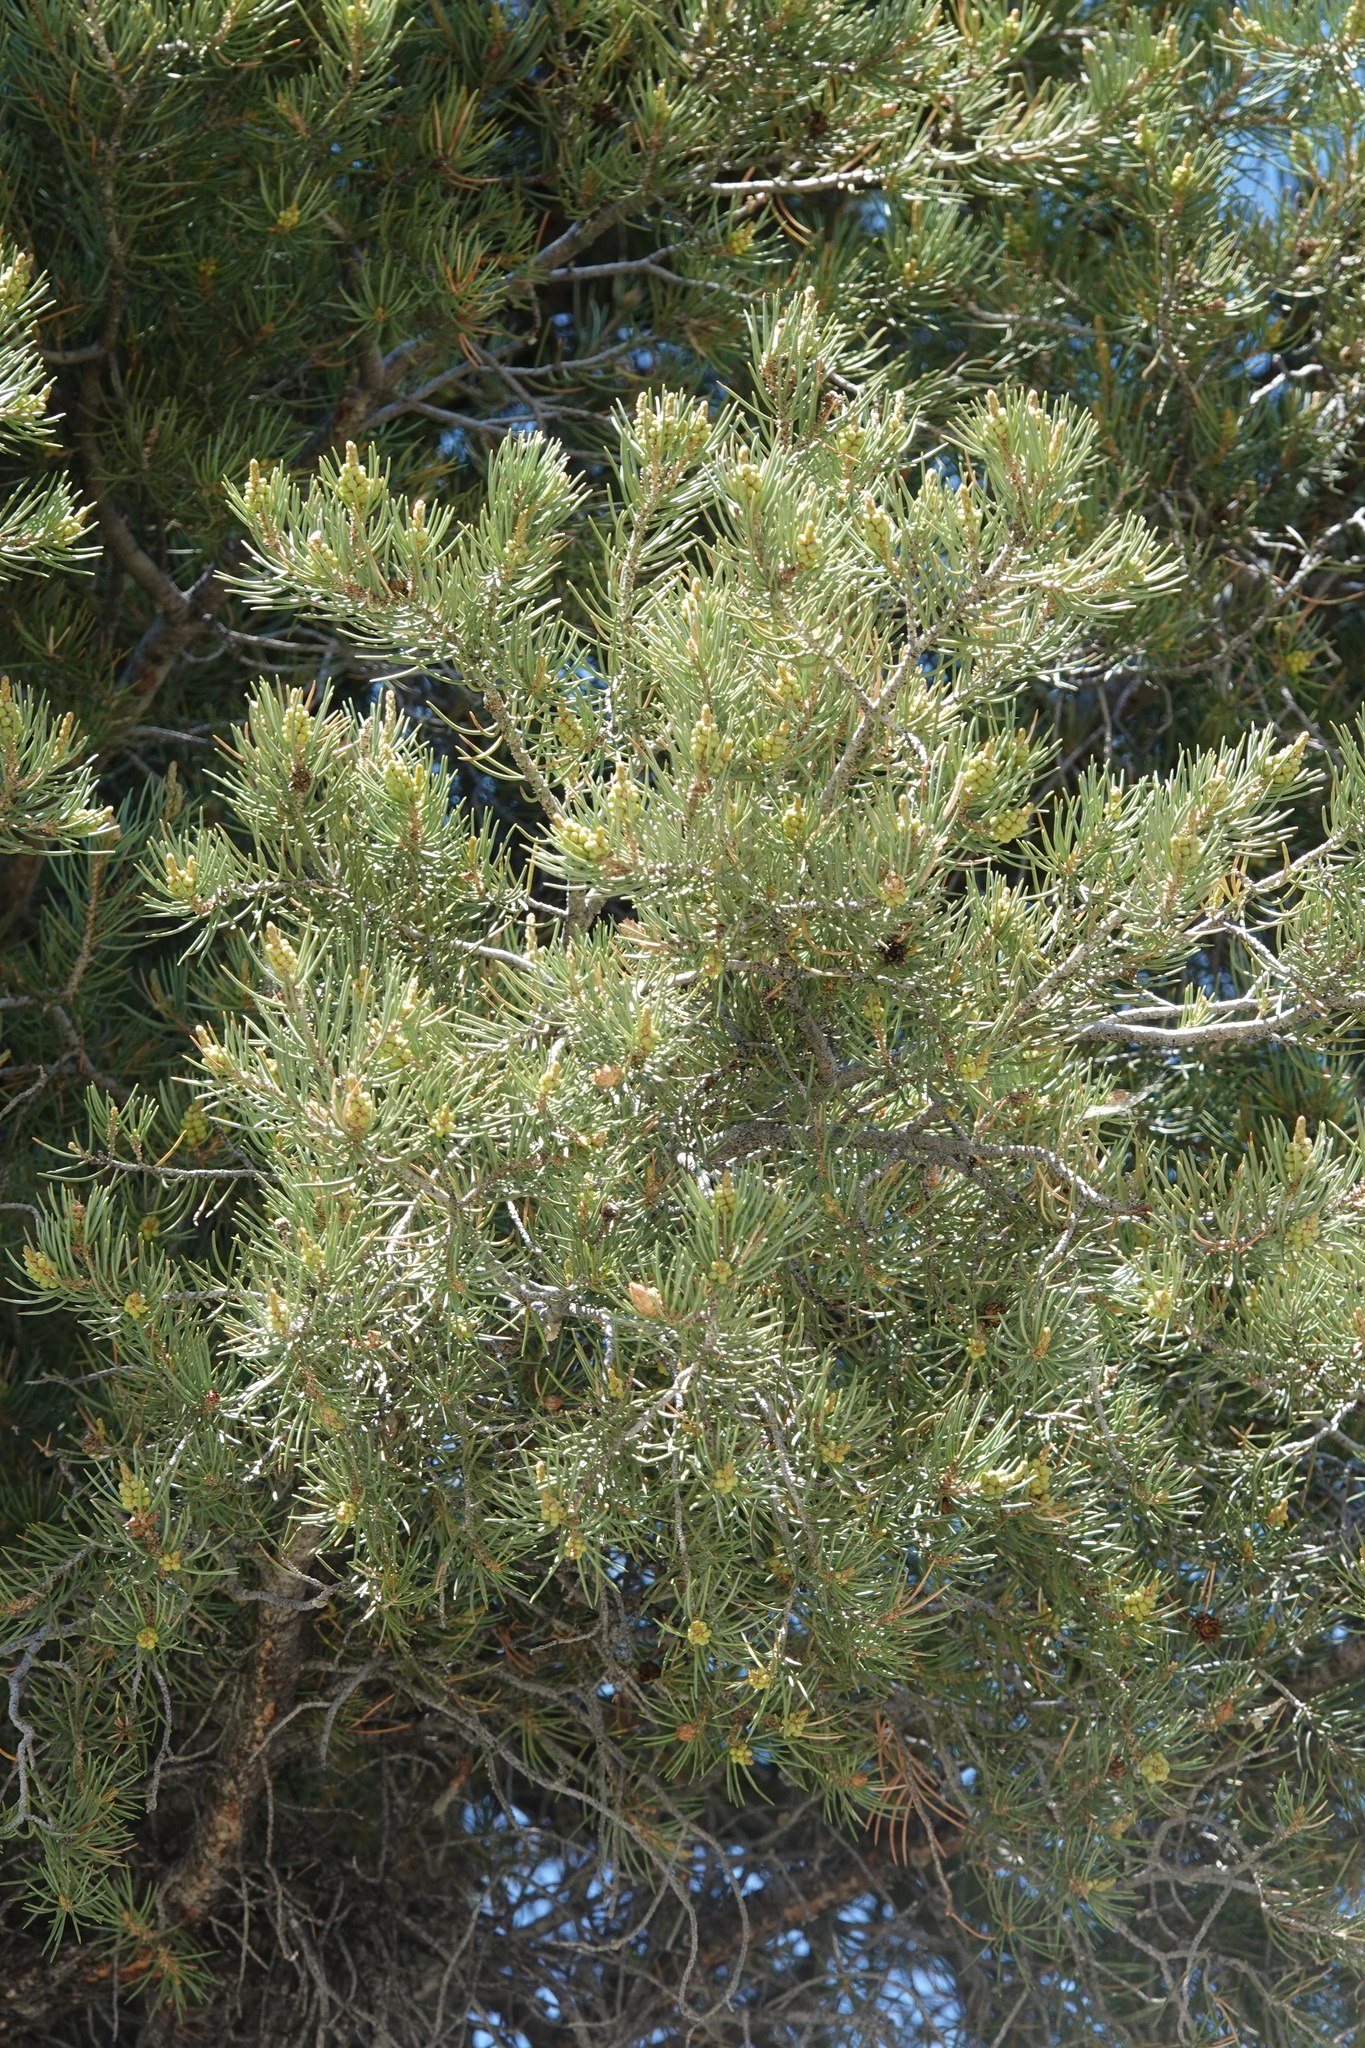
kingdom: Plantae
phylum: Tracheophyta
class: Pinopsida
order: Pinales
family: Pinaceae
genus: Pinus
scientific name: Pinus monophylla
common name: One-leaved nut pine
